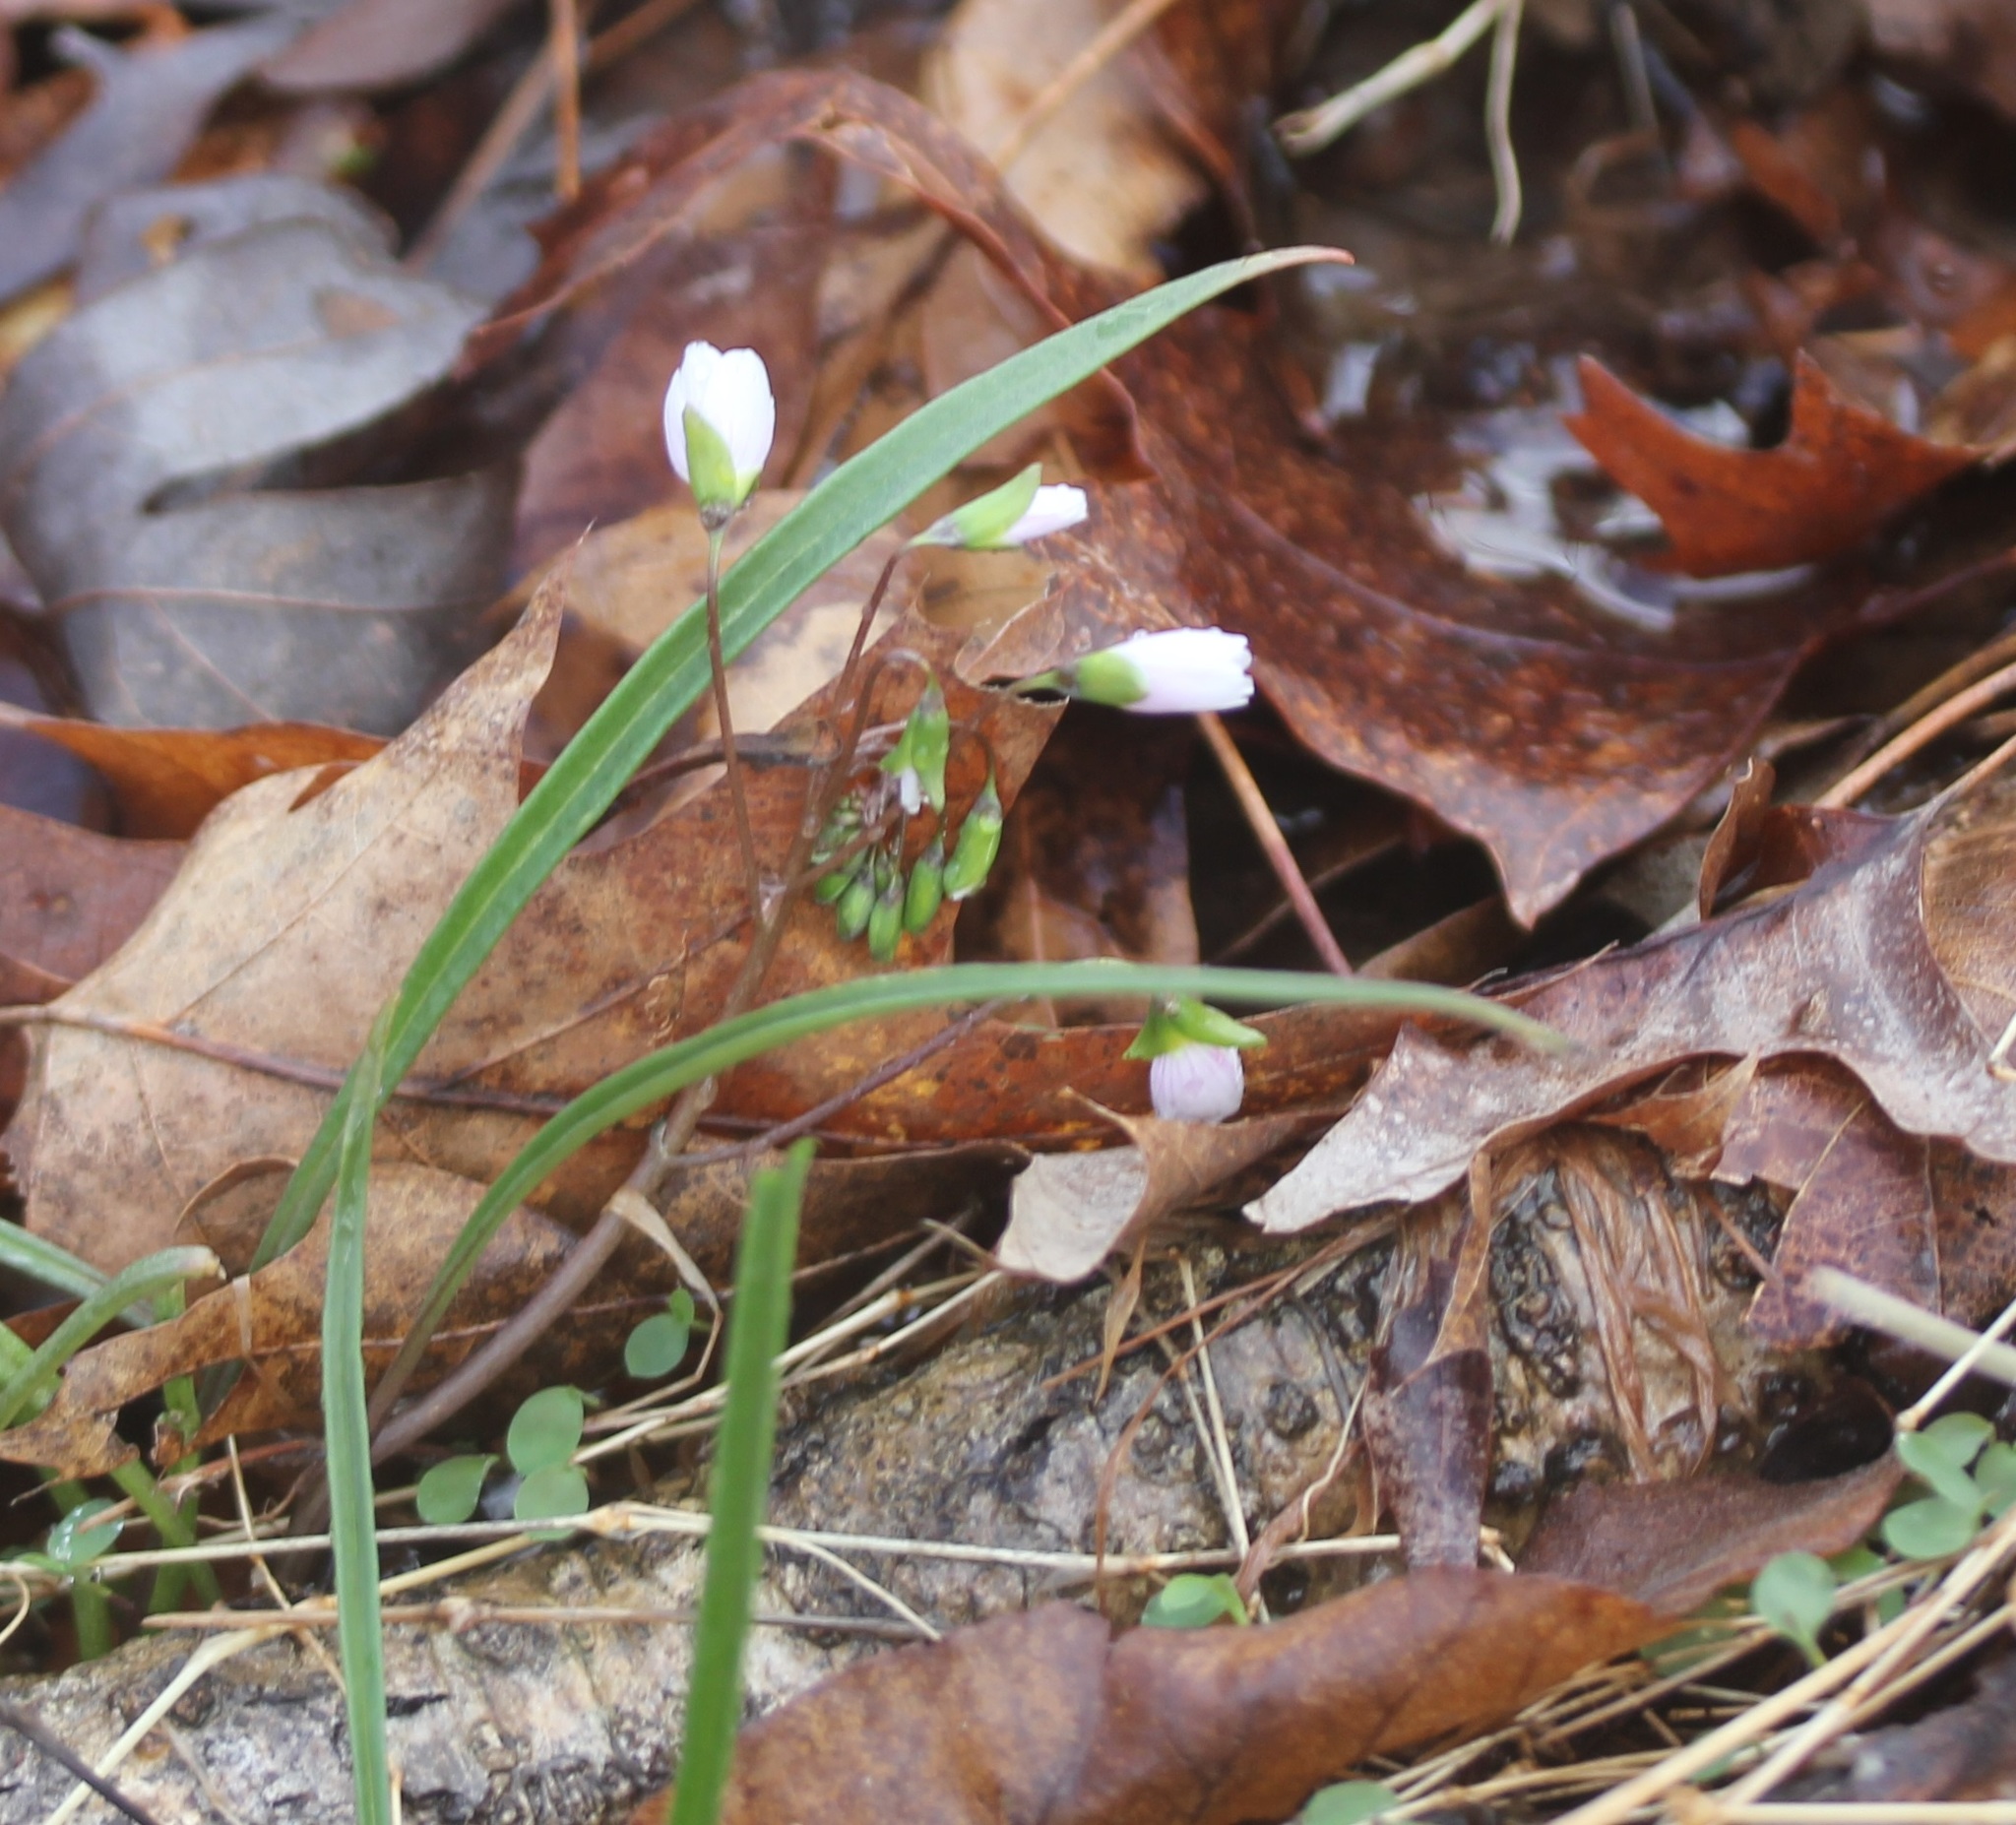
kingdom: Plantae
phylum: Tracheophyta
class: Magnoliopsida
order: Caryophyllales
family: Montiaceae
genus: Claytonia
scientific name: Claytonia virginica
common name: Virginia springbeauty
